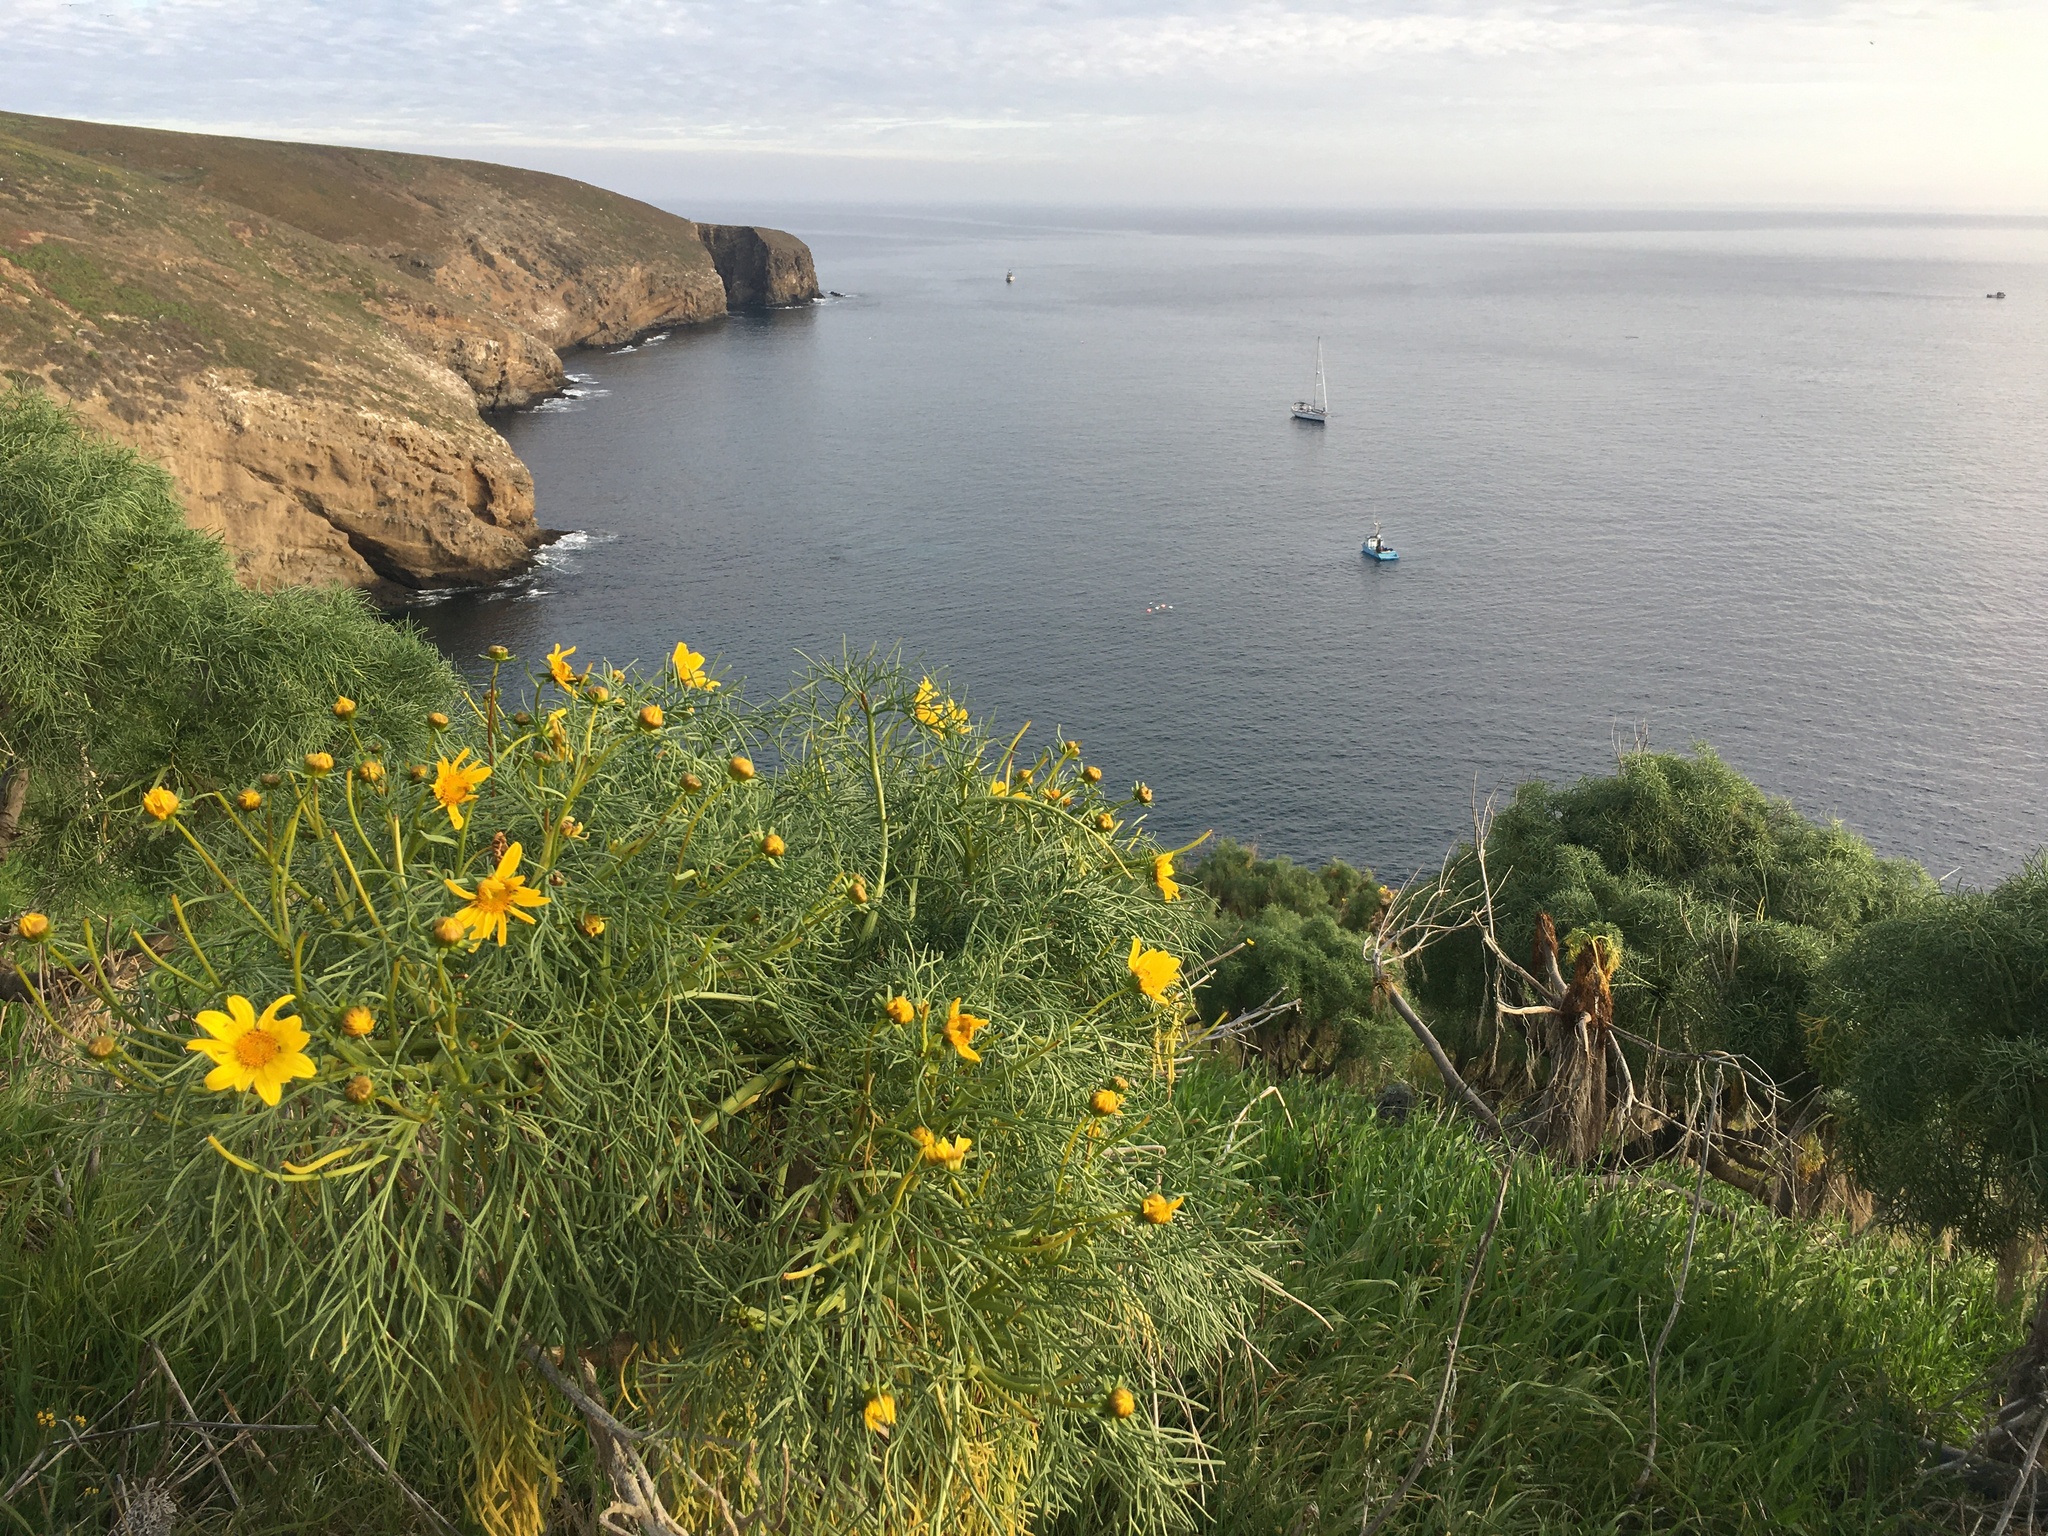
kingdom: Plantae
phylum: Tracheophyta
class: Magnoliopsida
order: Asterales
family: Asteraceae
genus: Coreopsis
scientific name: Coreopsis gigantea
